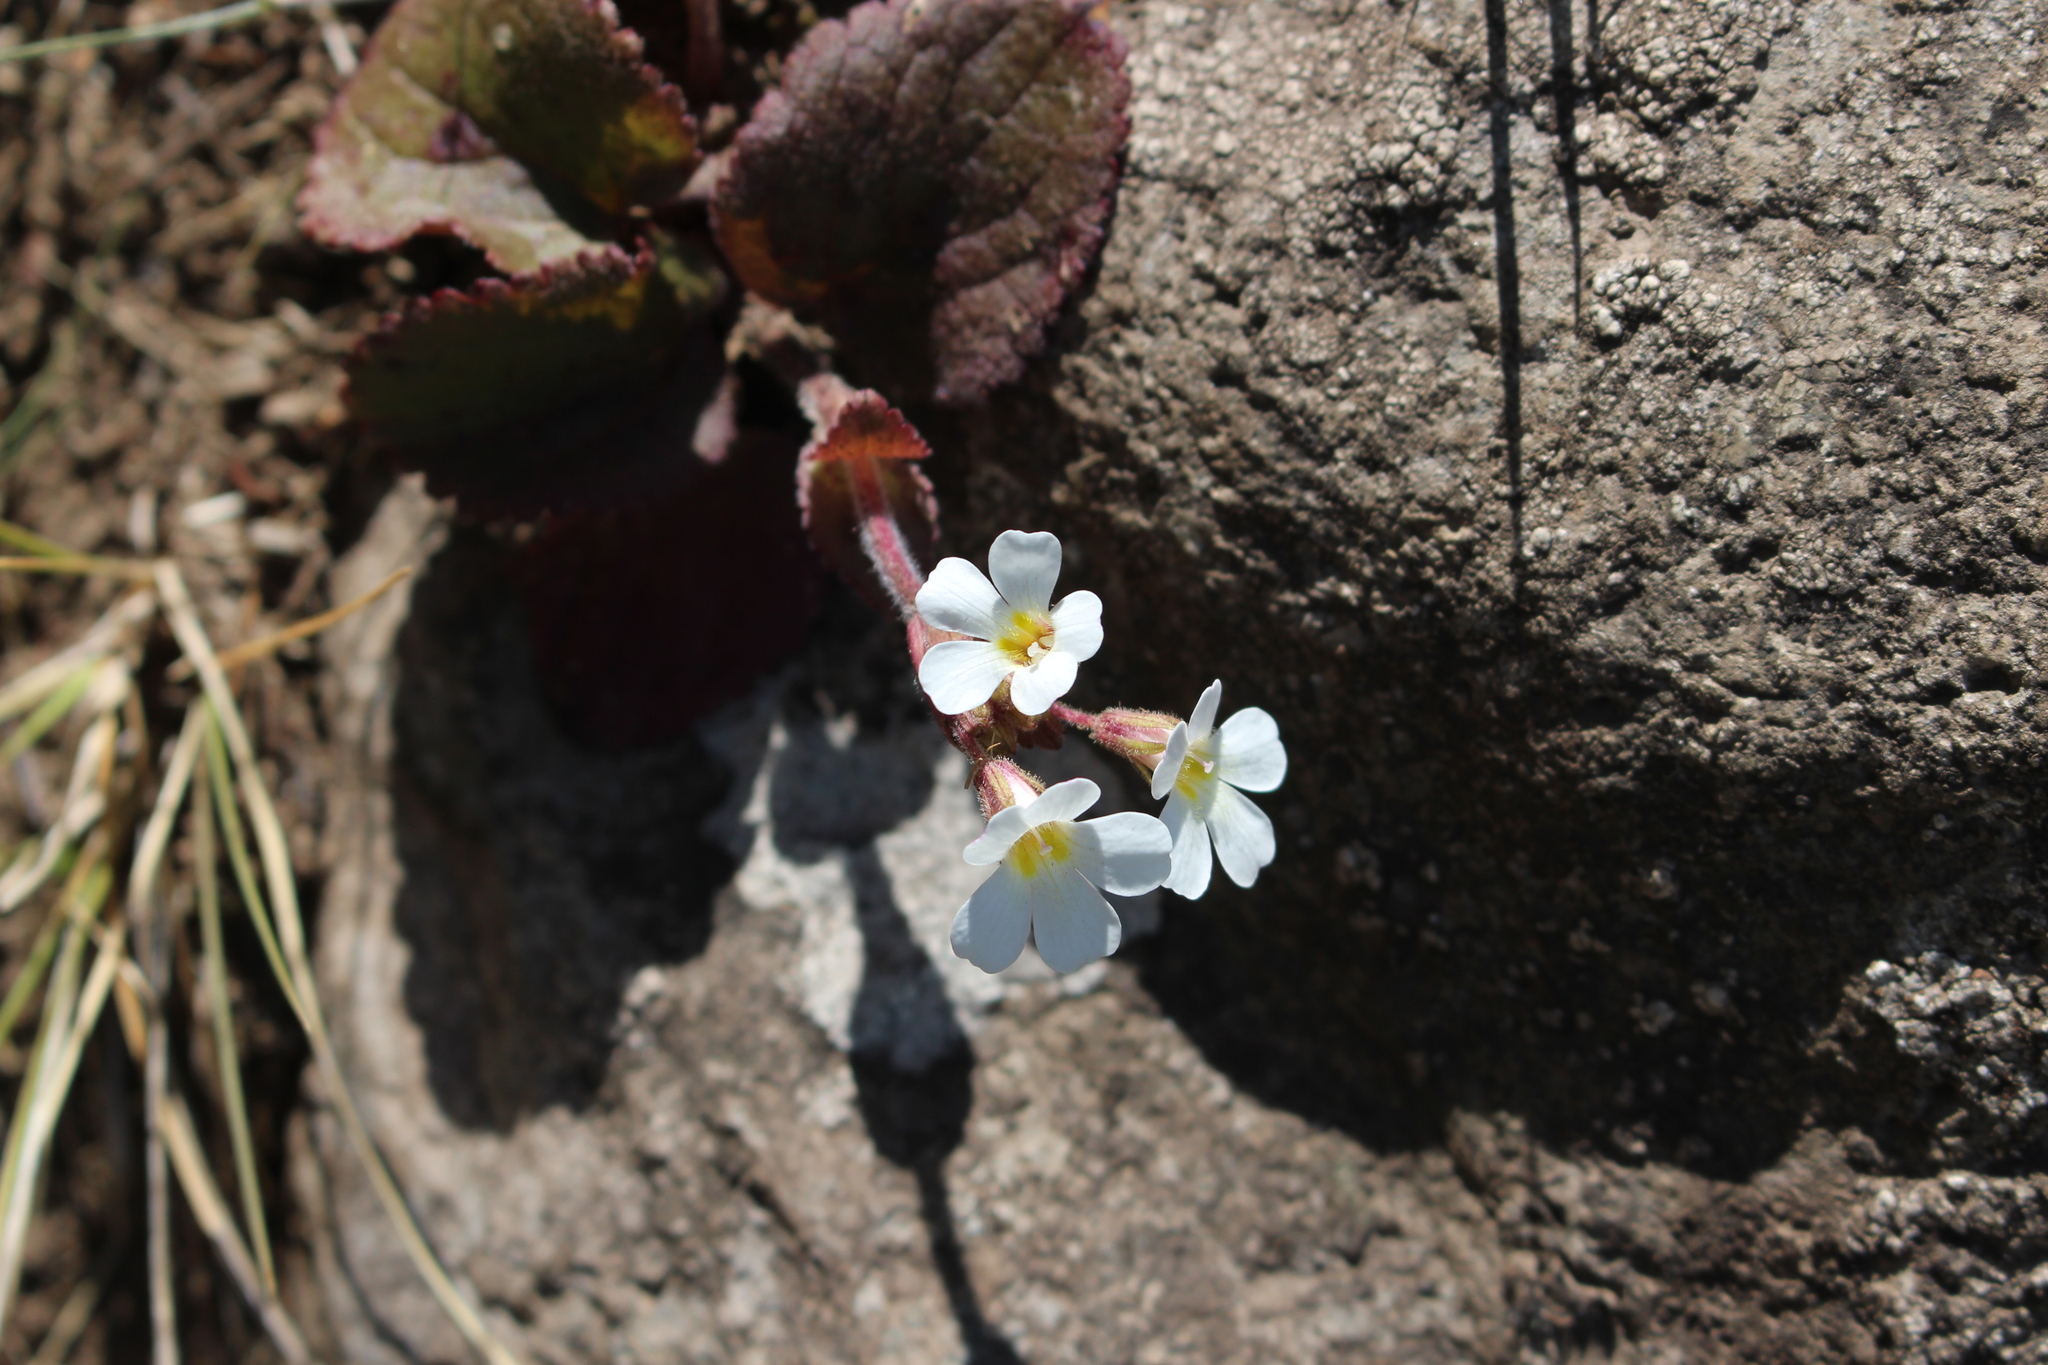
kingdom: Plantae
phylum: Tracheophyta
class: Magnoliopsida
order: Lamiales
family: Plantaginaceae
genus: Ourisia
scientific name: Ourisia macrophylla
